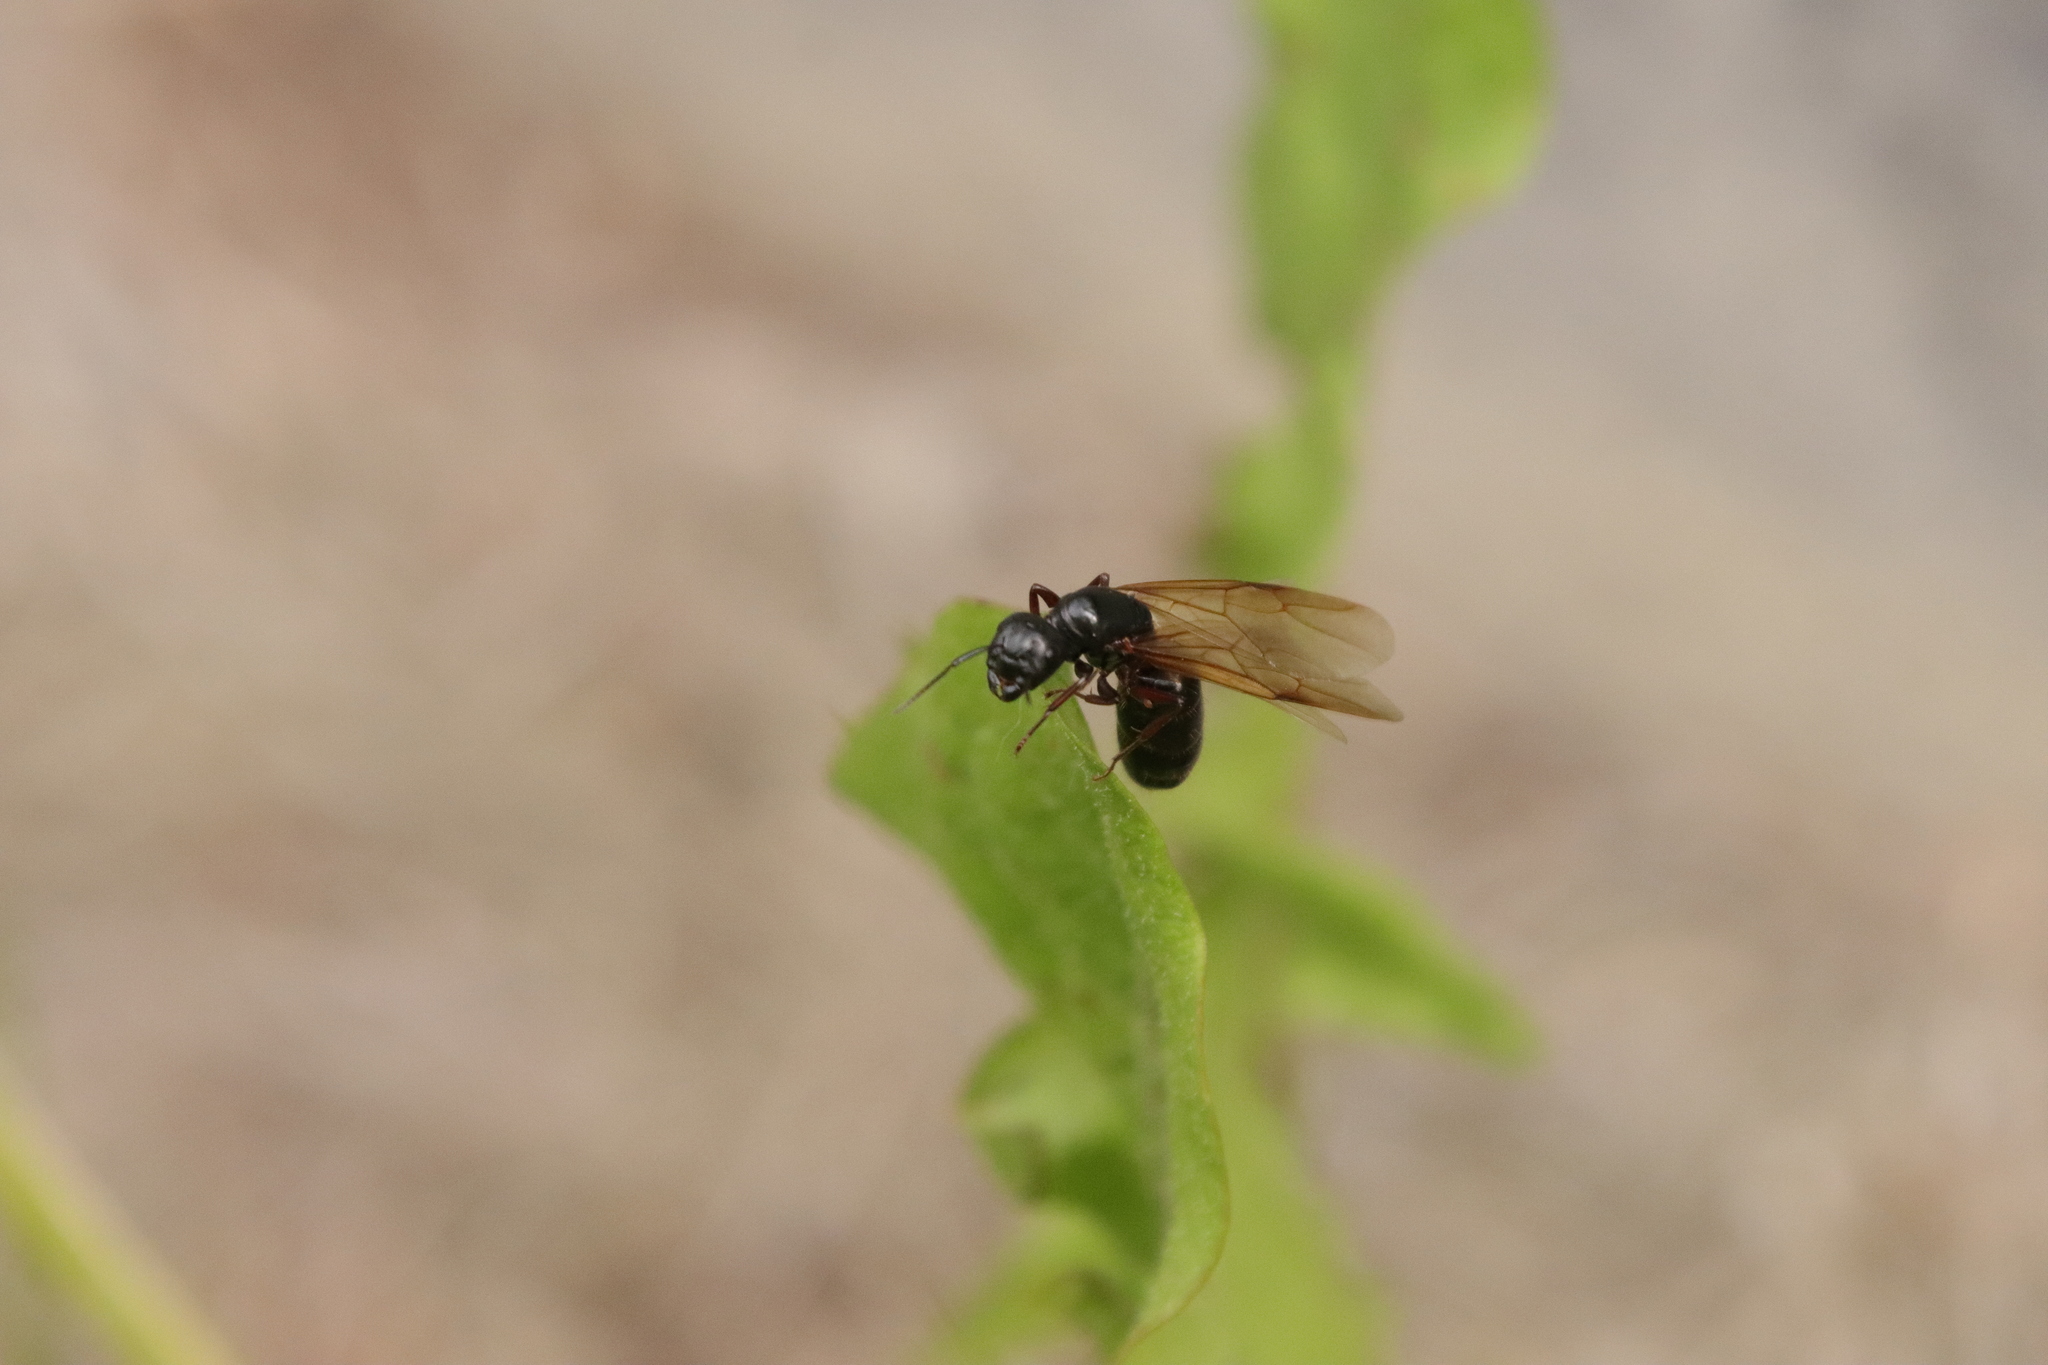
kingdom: Animalia
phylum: Arthropoda
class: Insecta
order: Hymenoptera
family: Formicidae
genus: Camponotus
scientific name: Camponotus modoc
